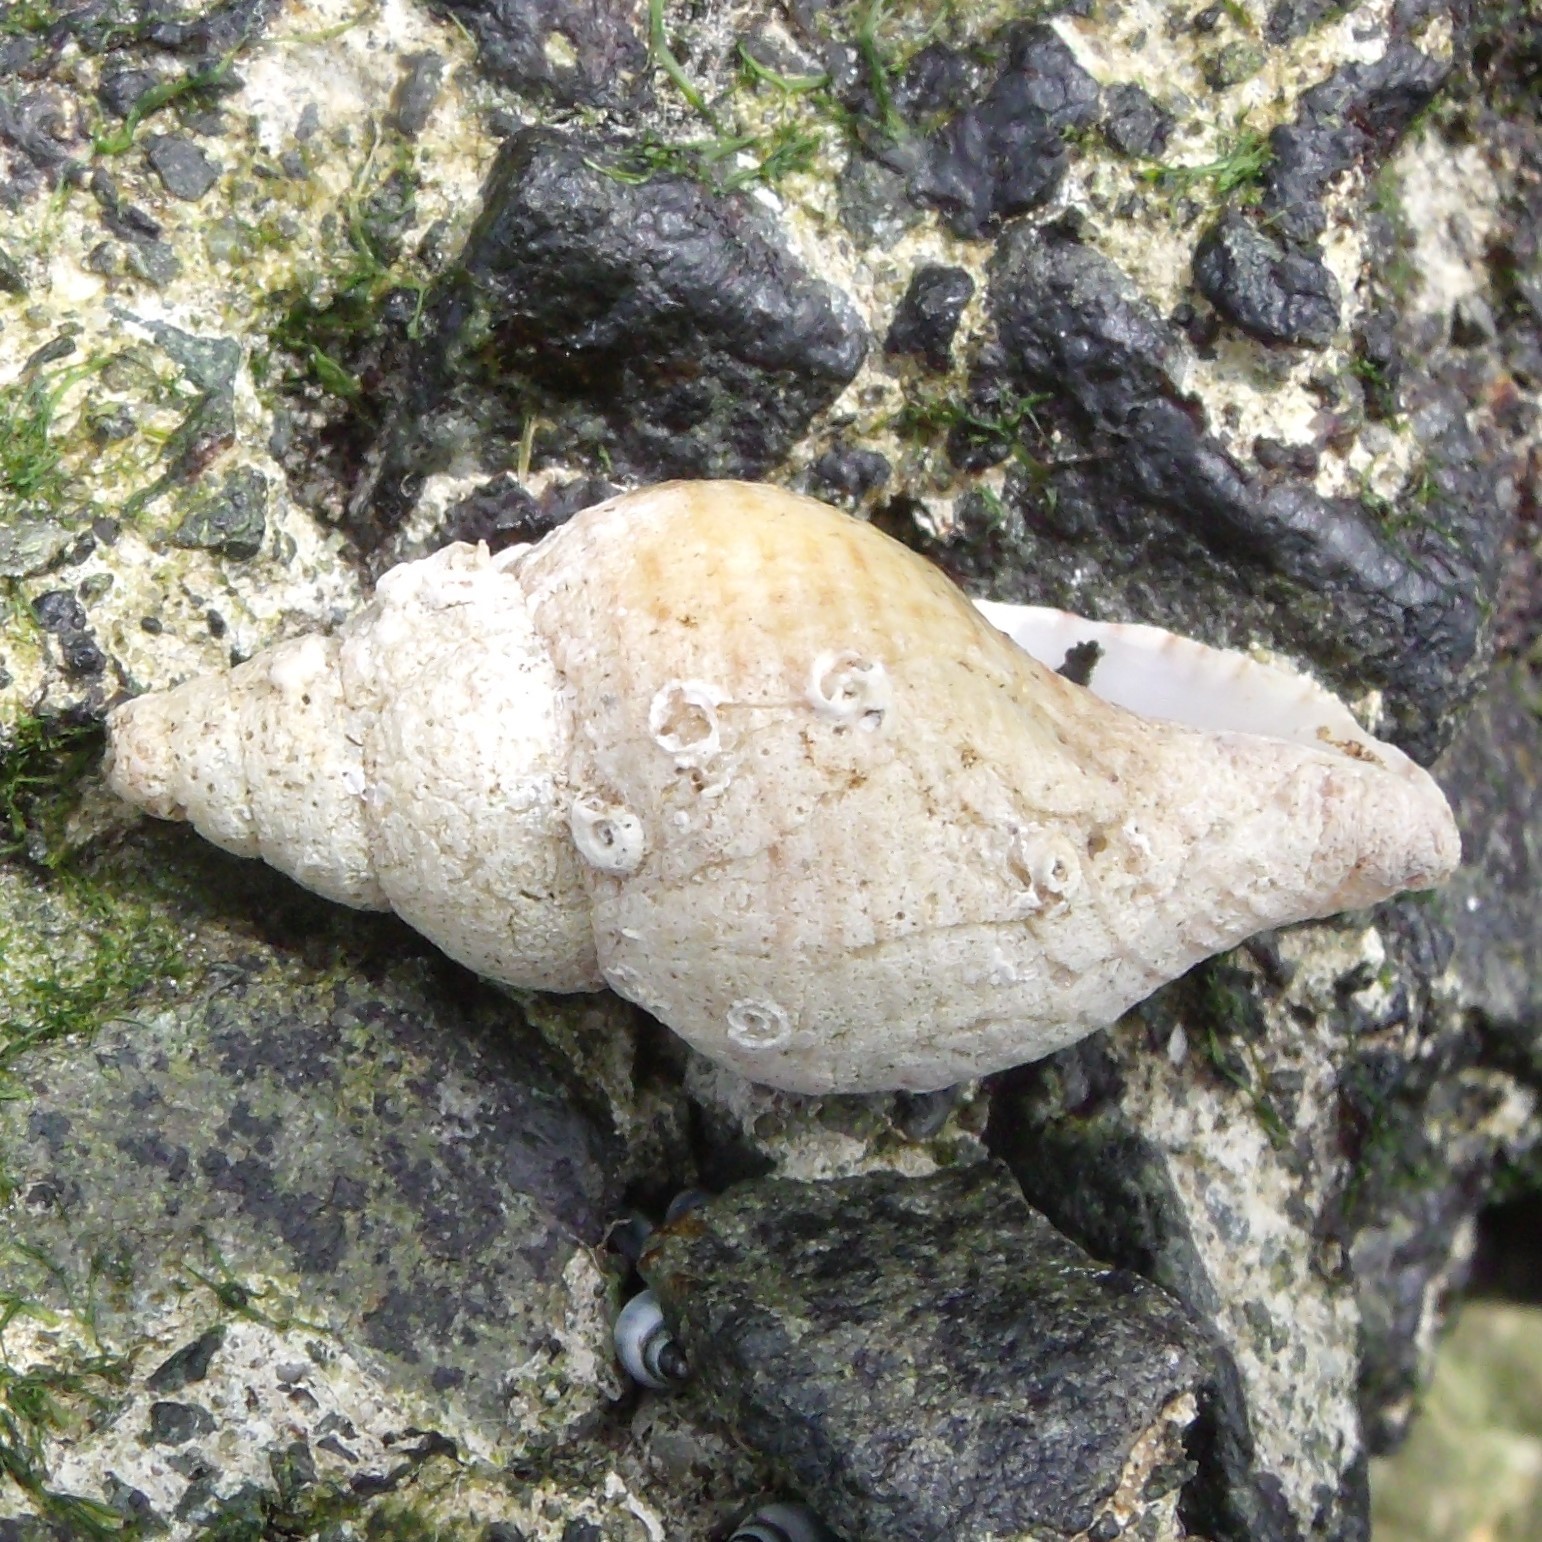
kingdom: Animalia
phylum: Mollusca
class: Gastropoda
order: Neogastropoda
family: Tudiclidae
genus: Buccinulum
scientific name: Buccinulum linea
